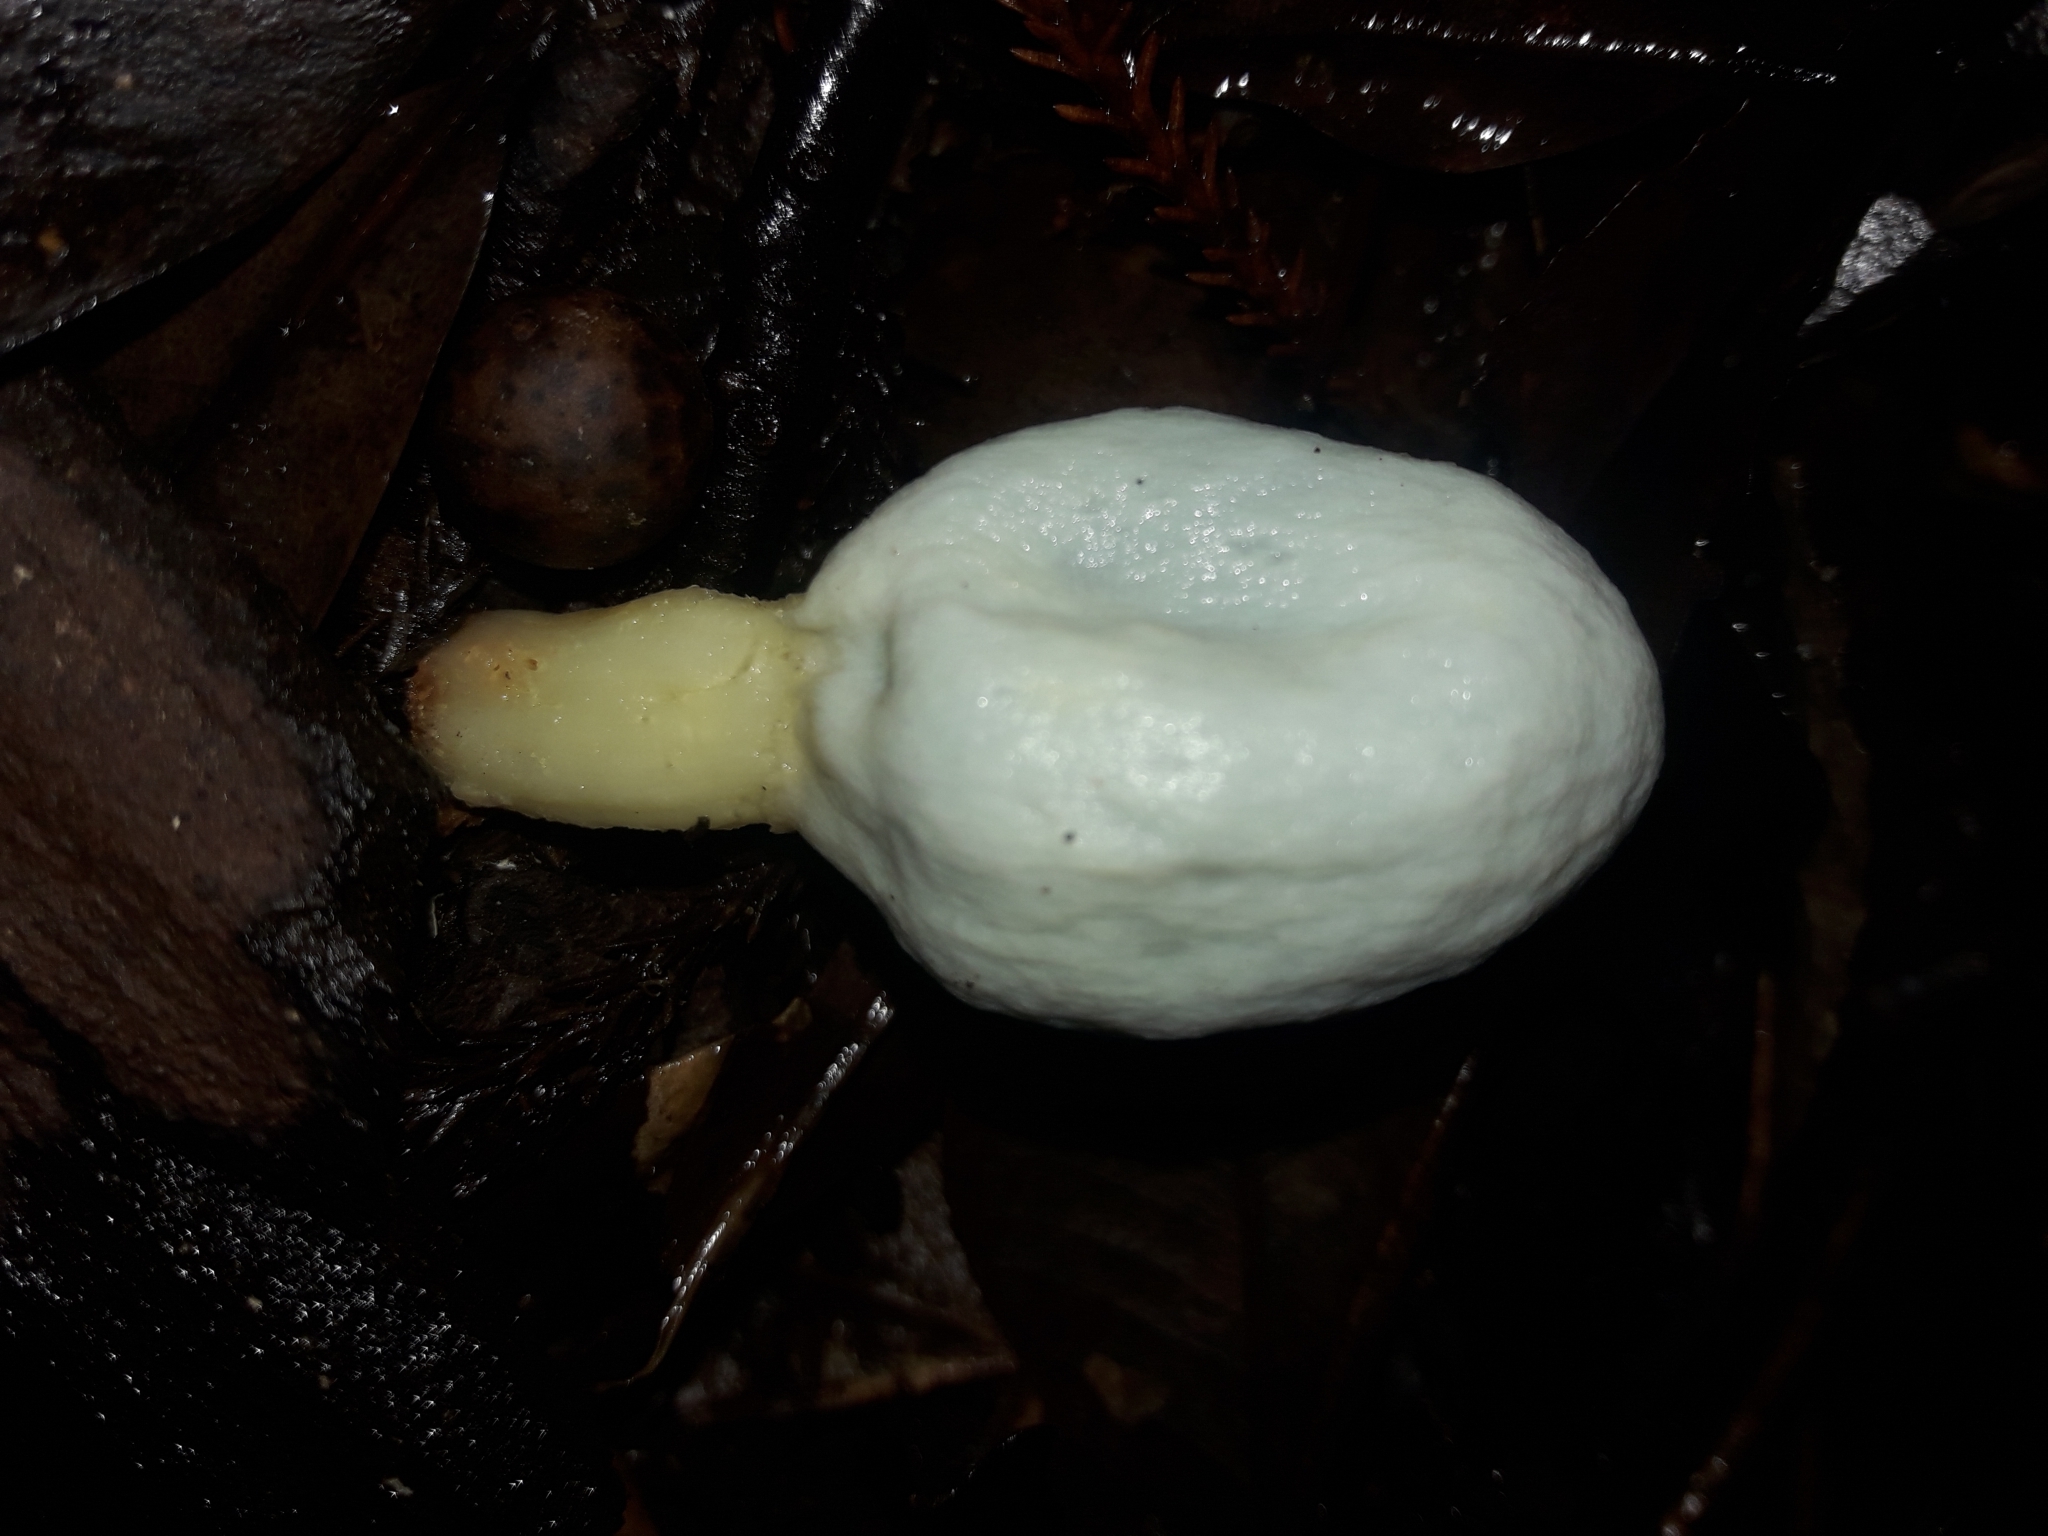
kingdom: Fungi
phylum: Basidiomycota
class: Agaricomycetes
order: Agaricales
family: Agaricaceae
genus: Clavogaster
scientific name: Clavogaster virescens
